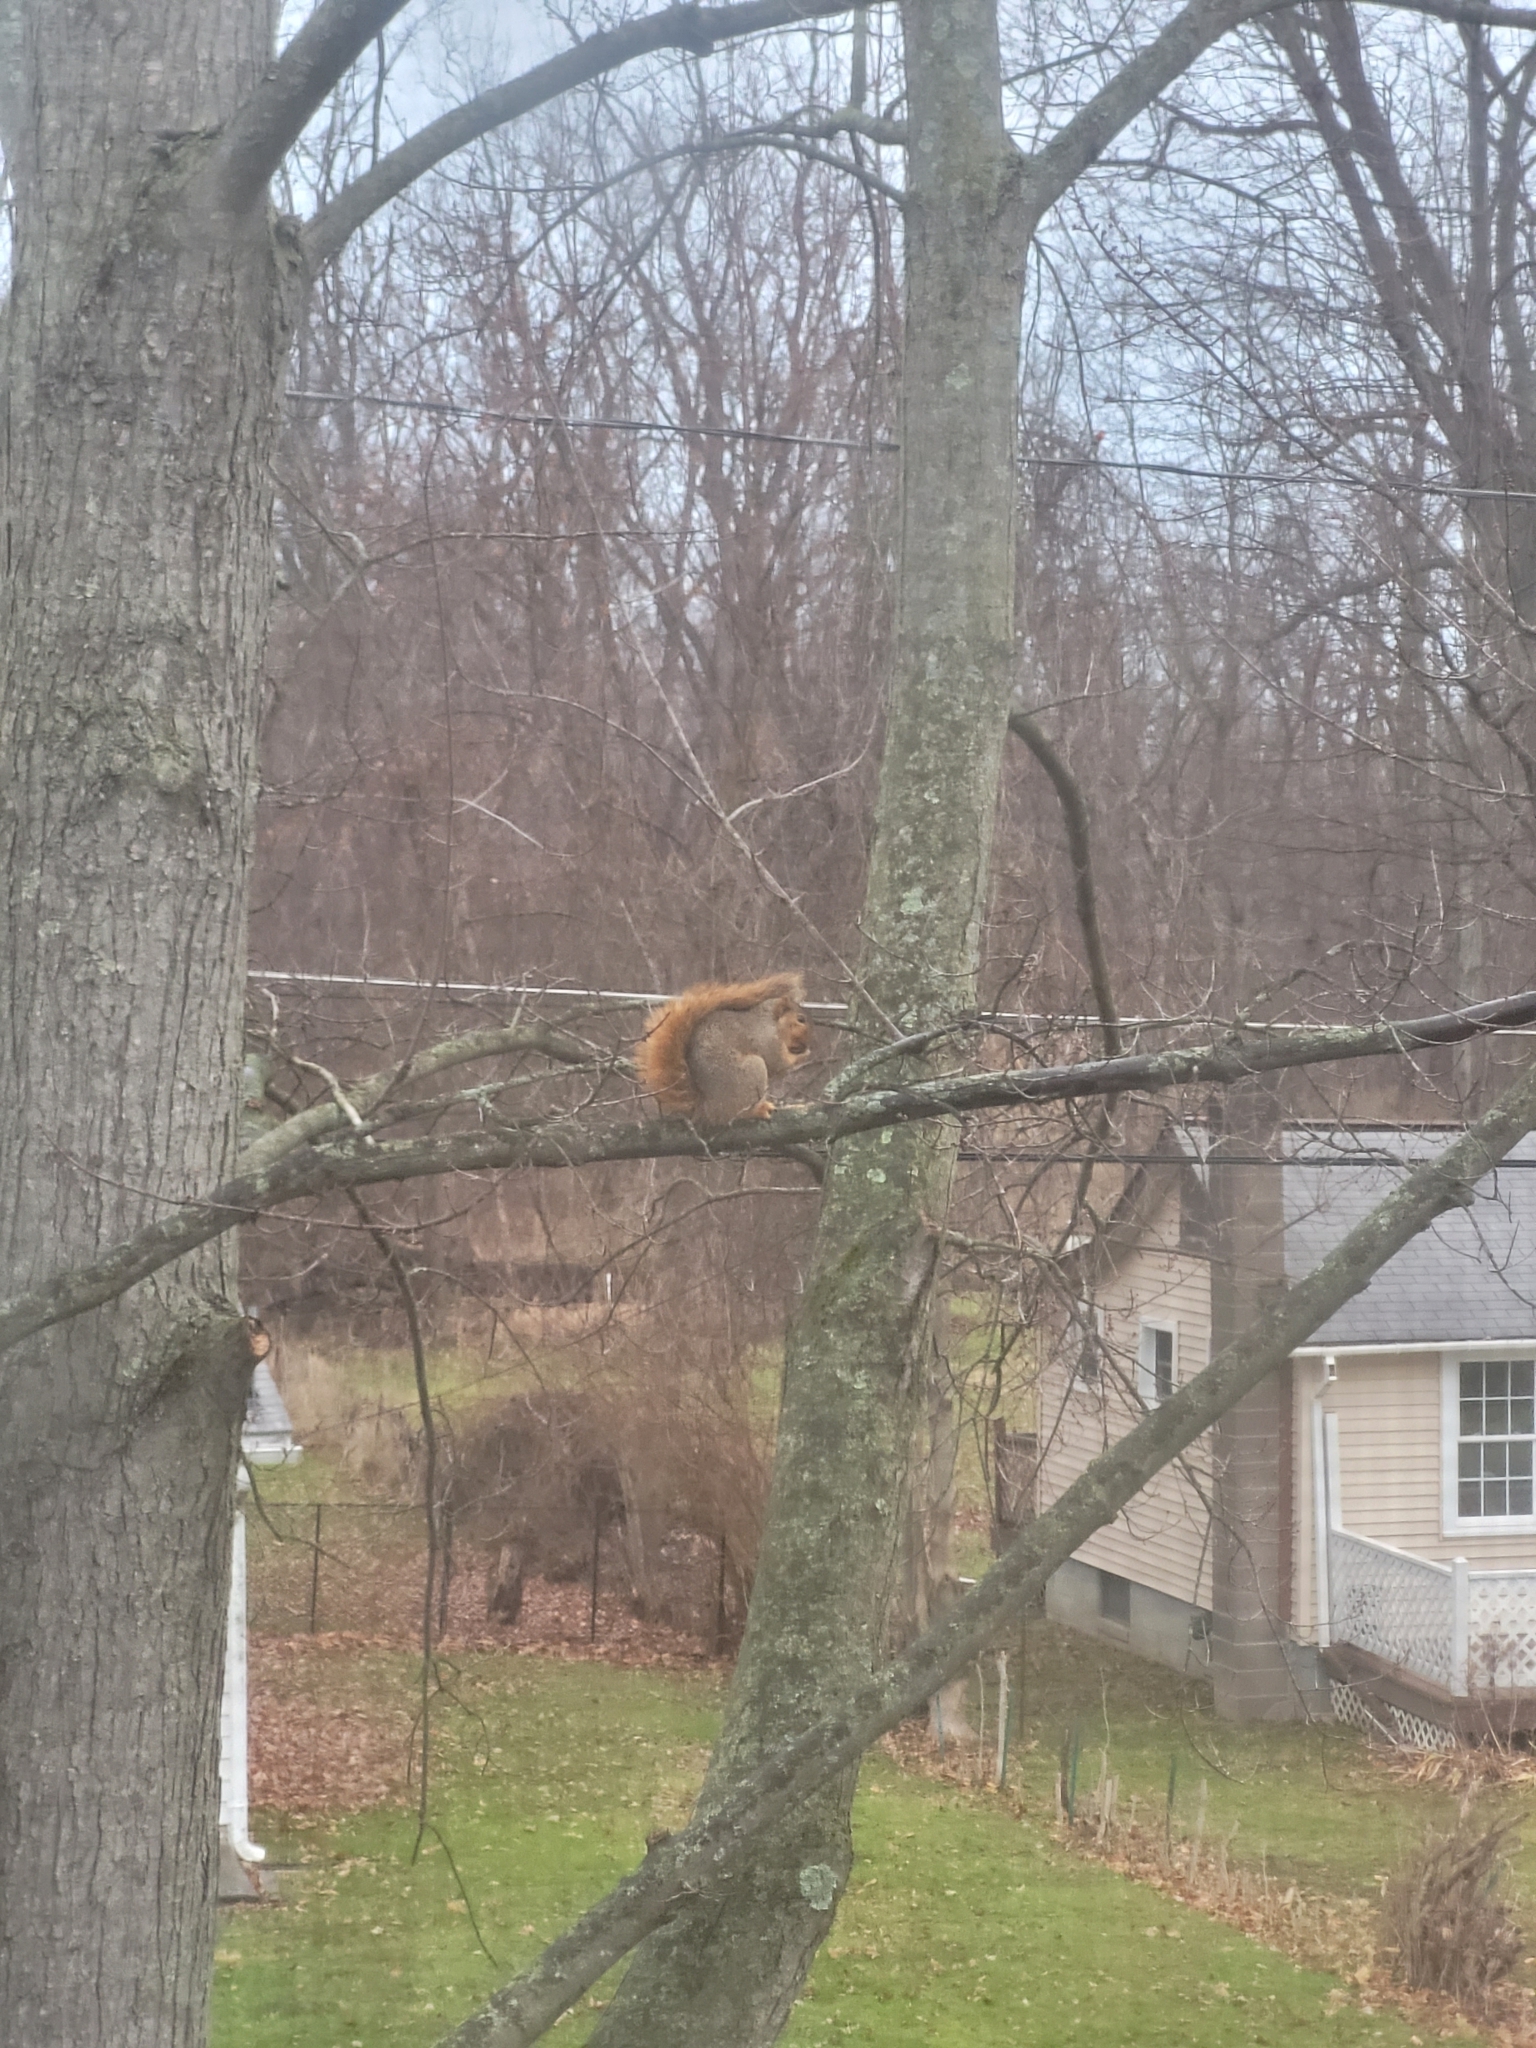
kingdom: Animalia
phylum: Chordata
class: Mammalia
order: Rodentia
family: Sciuridae
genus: Sciurus
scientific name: Sciurus niger
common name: Fox squirrel
